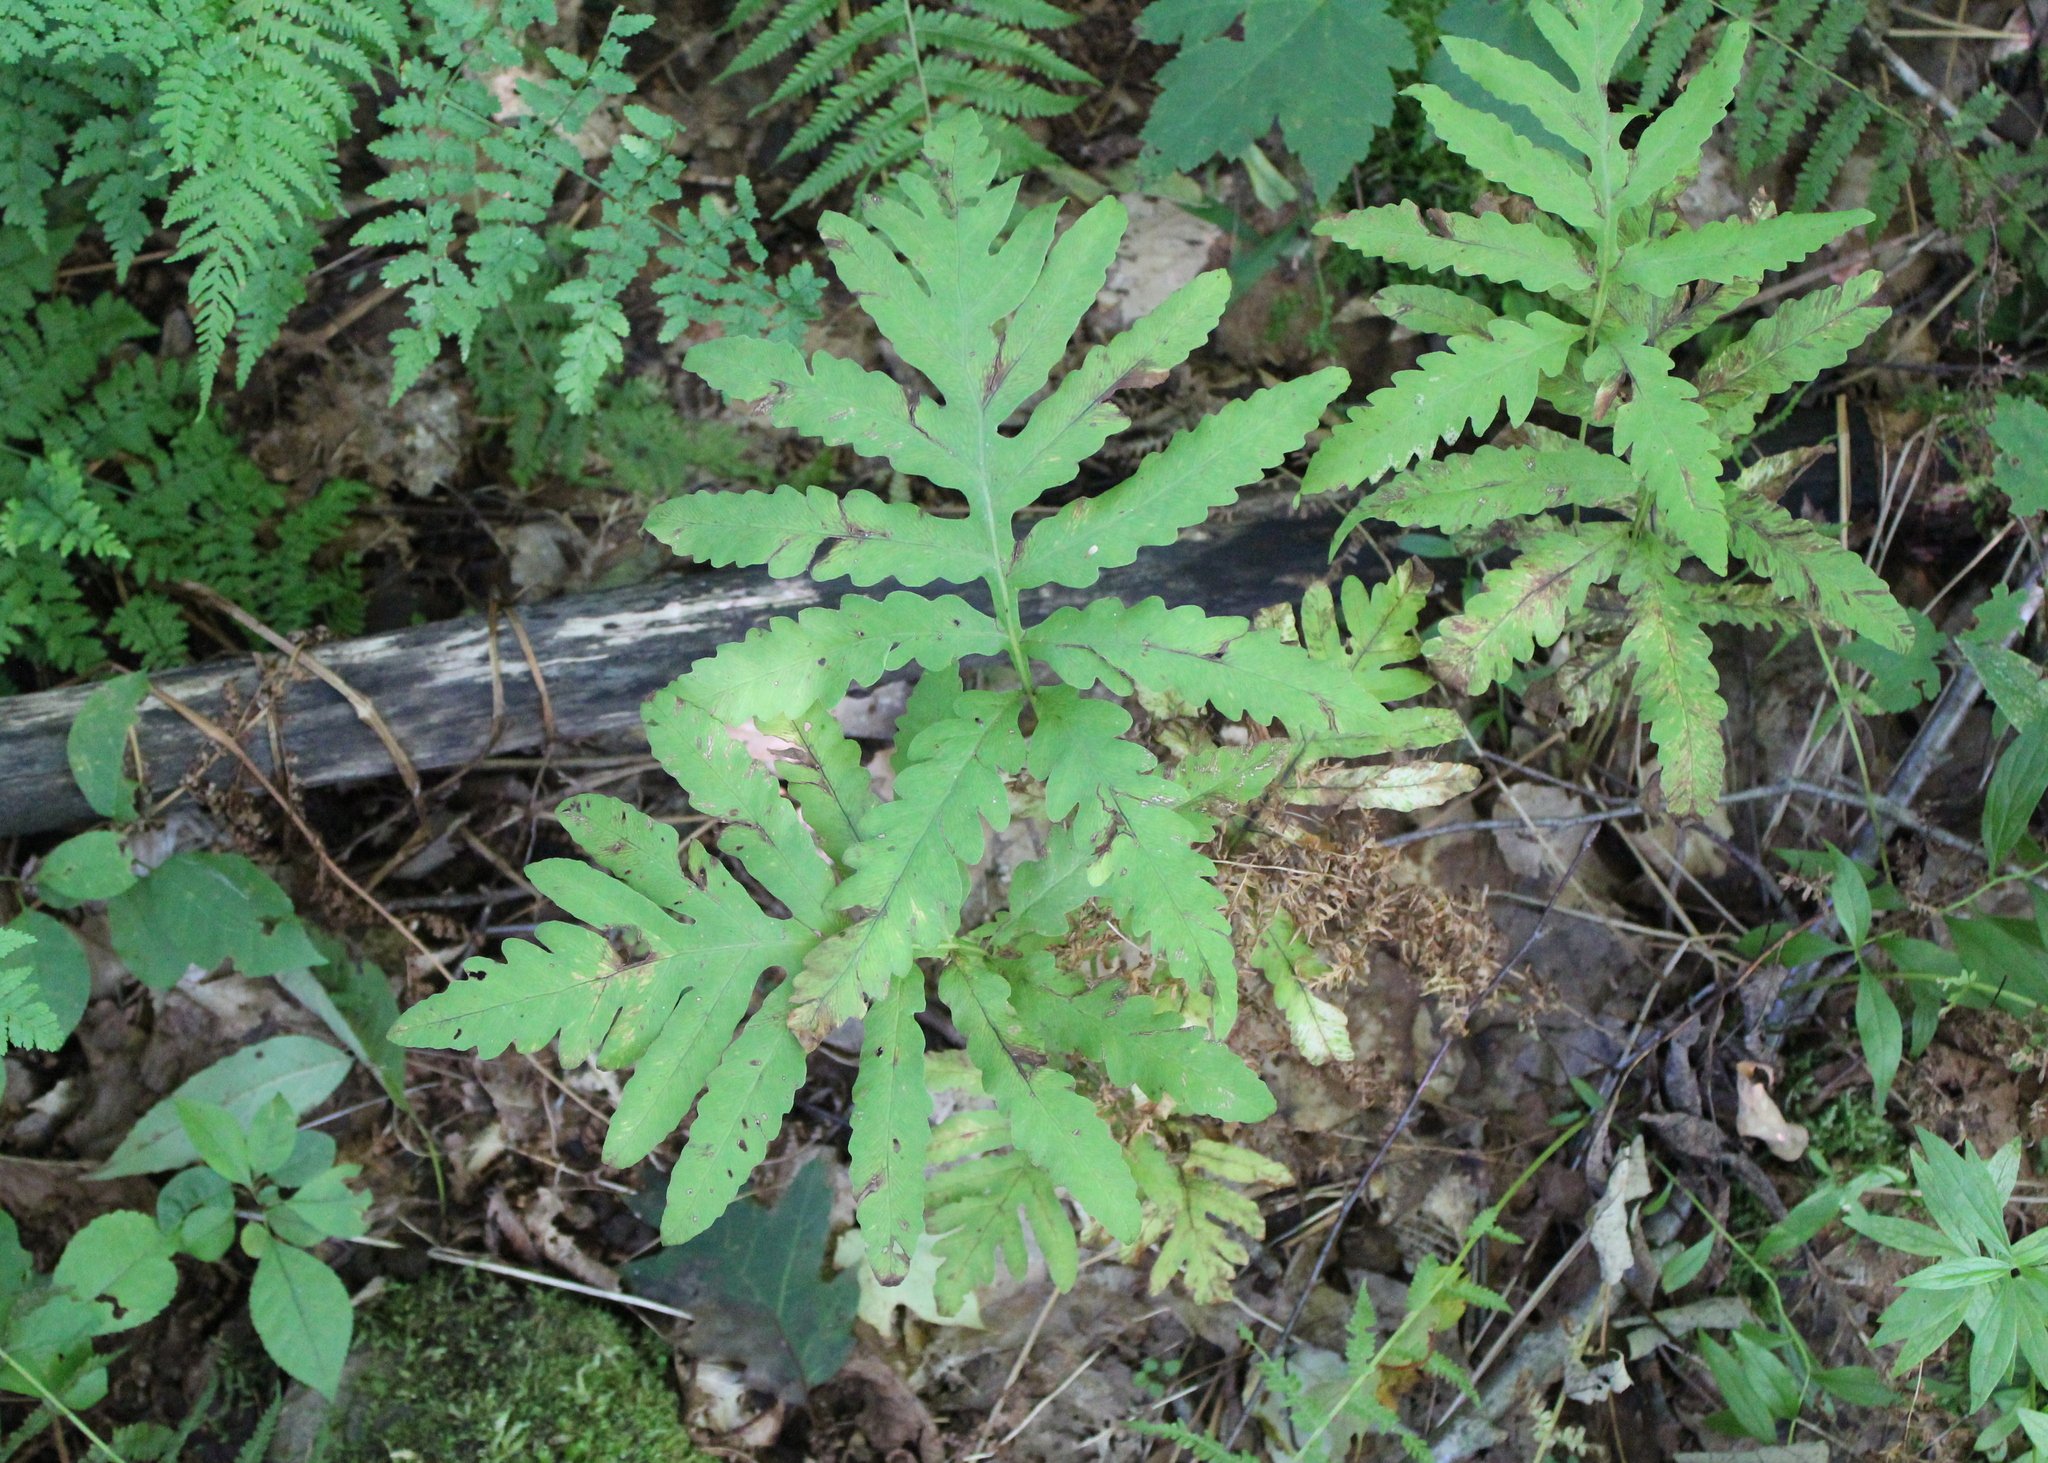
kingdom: Plantae
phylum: Tracheophyta
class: Polypodiopsida
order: Polypodiales
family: Onocleaceae
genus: Onoclea
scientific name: Onoclea sensibilis
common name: Sensitive fern
